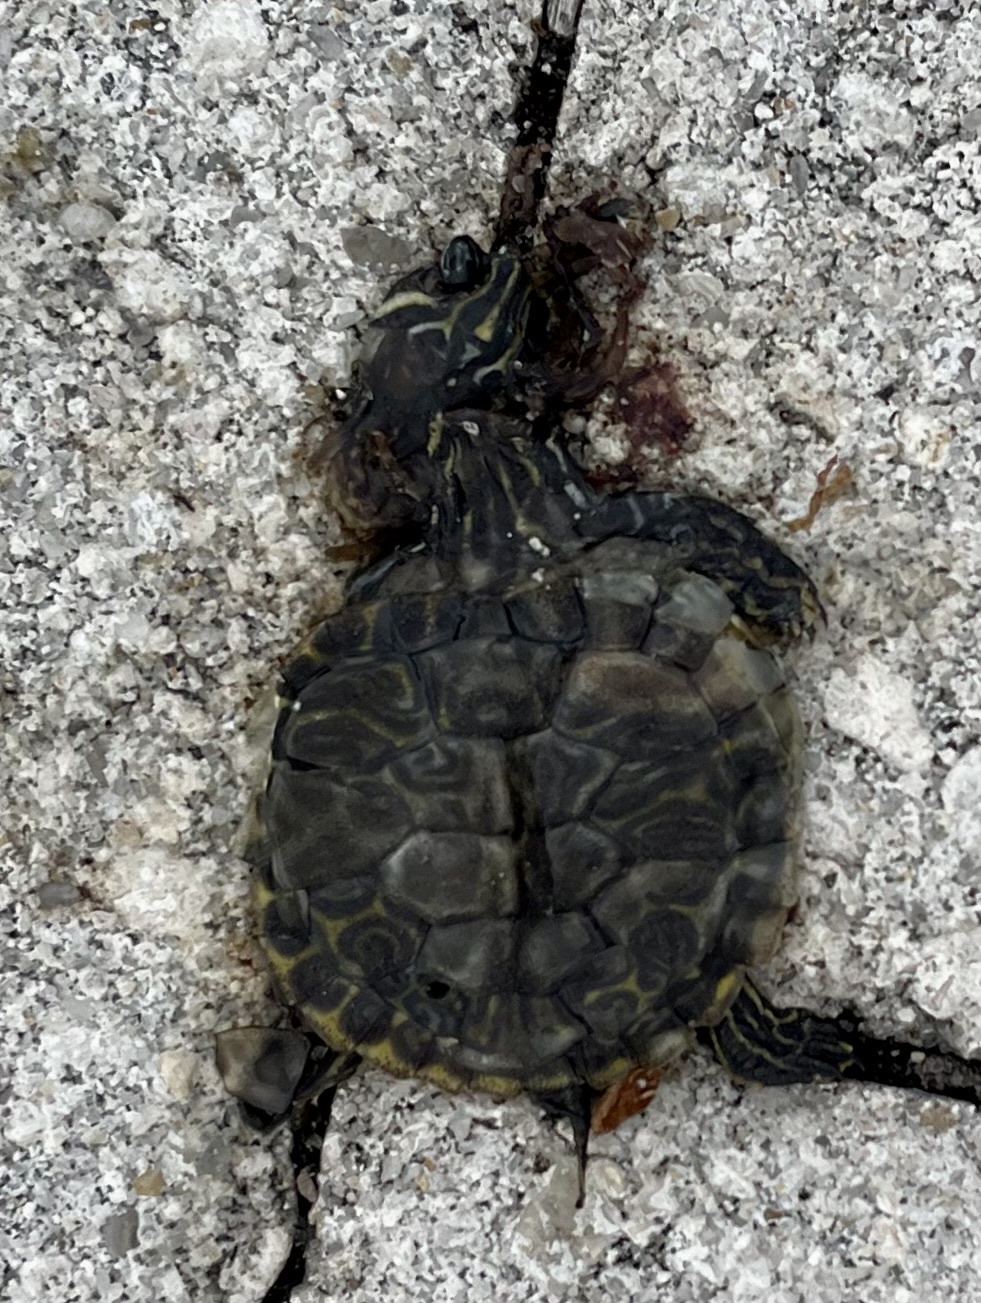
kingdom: Animalia
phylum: Chordata
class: Testudines
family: Emydidae
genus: Pseudemys
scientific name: Pseudemys peninsularis
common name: Peninsula cooter
